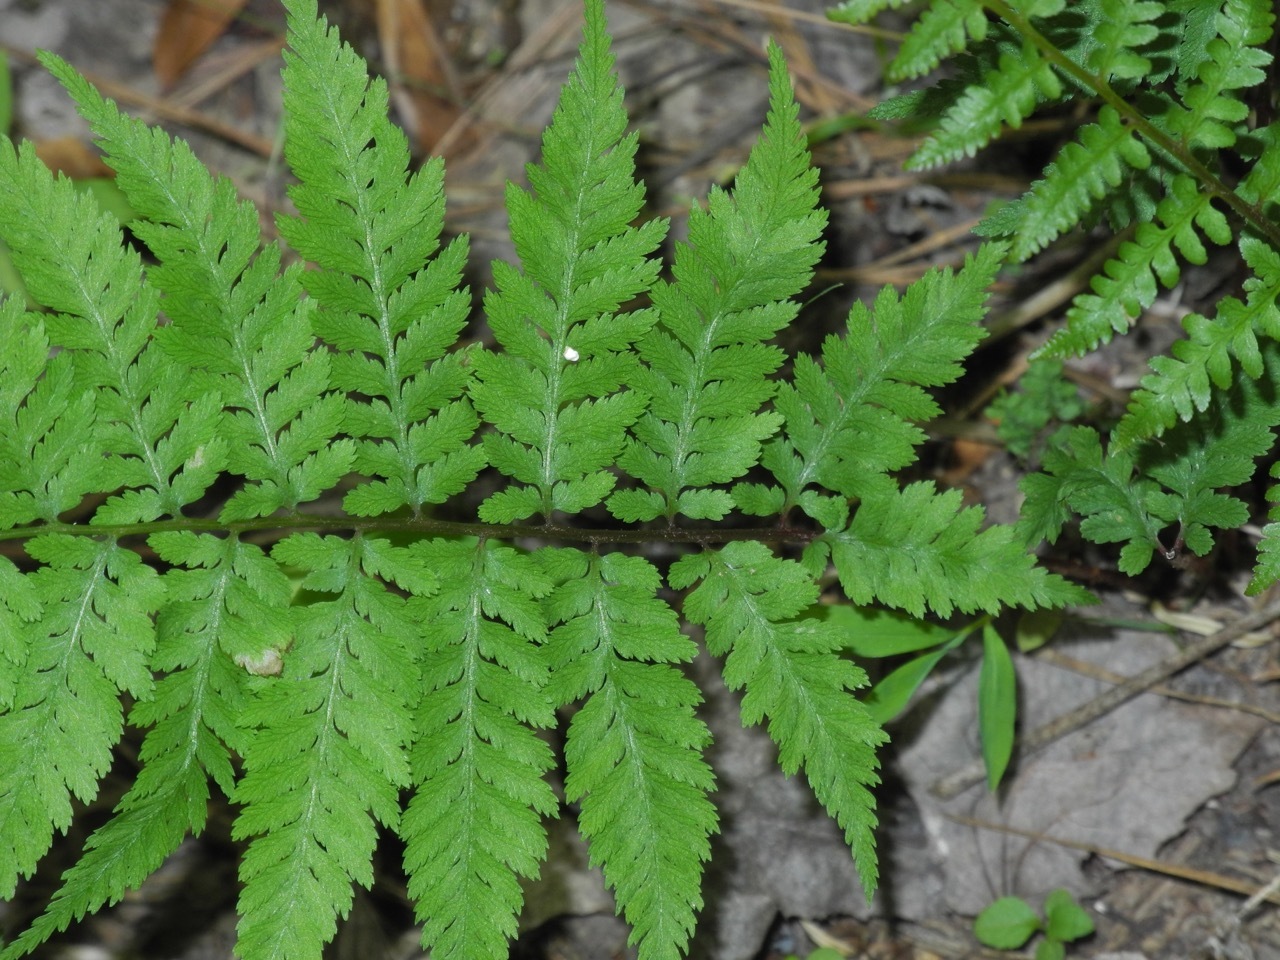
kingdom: Plantae
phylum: Tracheophyta
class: Polypodiopsida
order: Polypodiales
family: Athyriaceae
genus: Athyrium
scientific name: Athyrium asplenioides
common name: Southern lady fern
